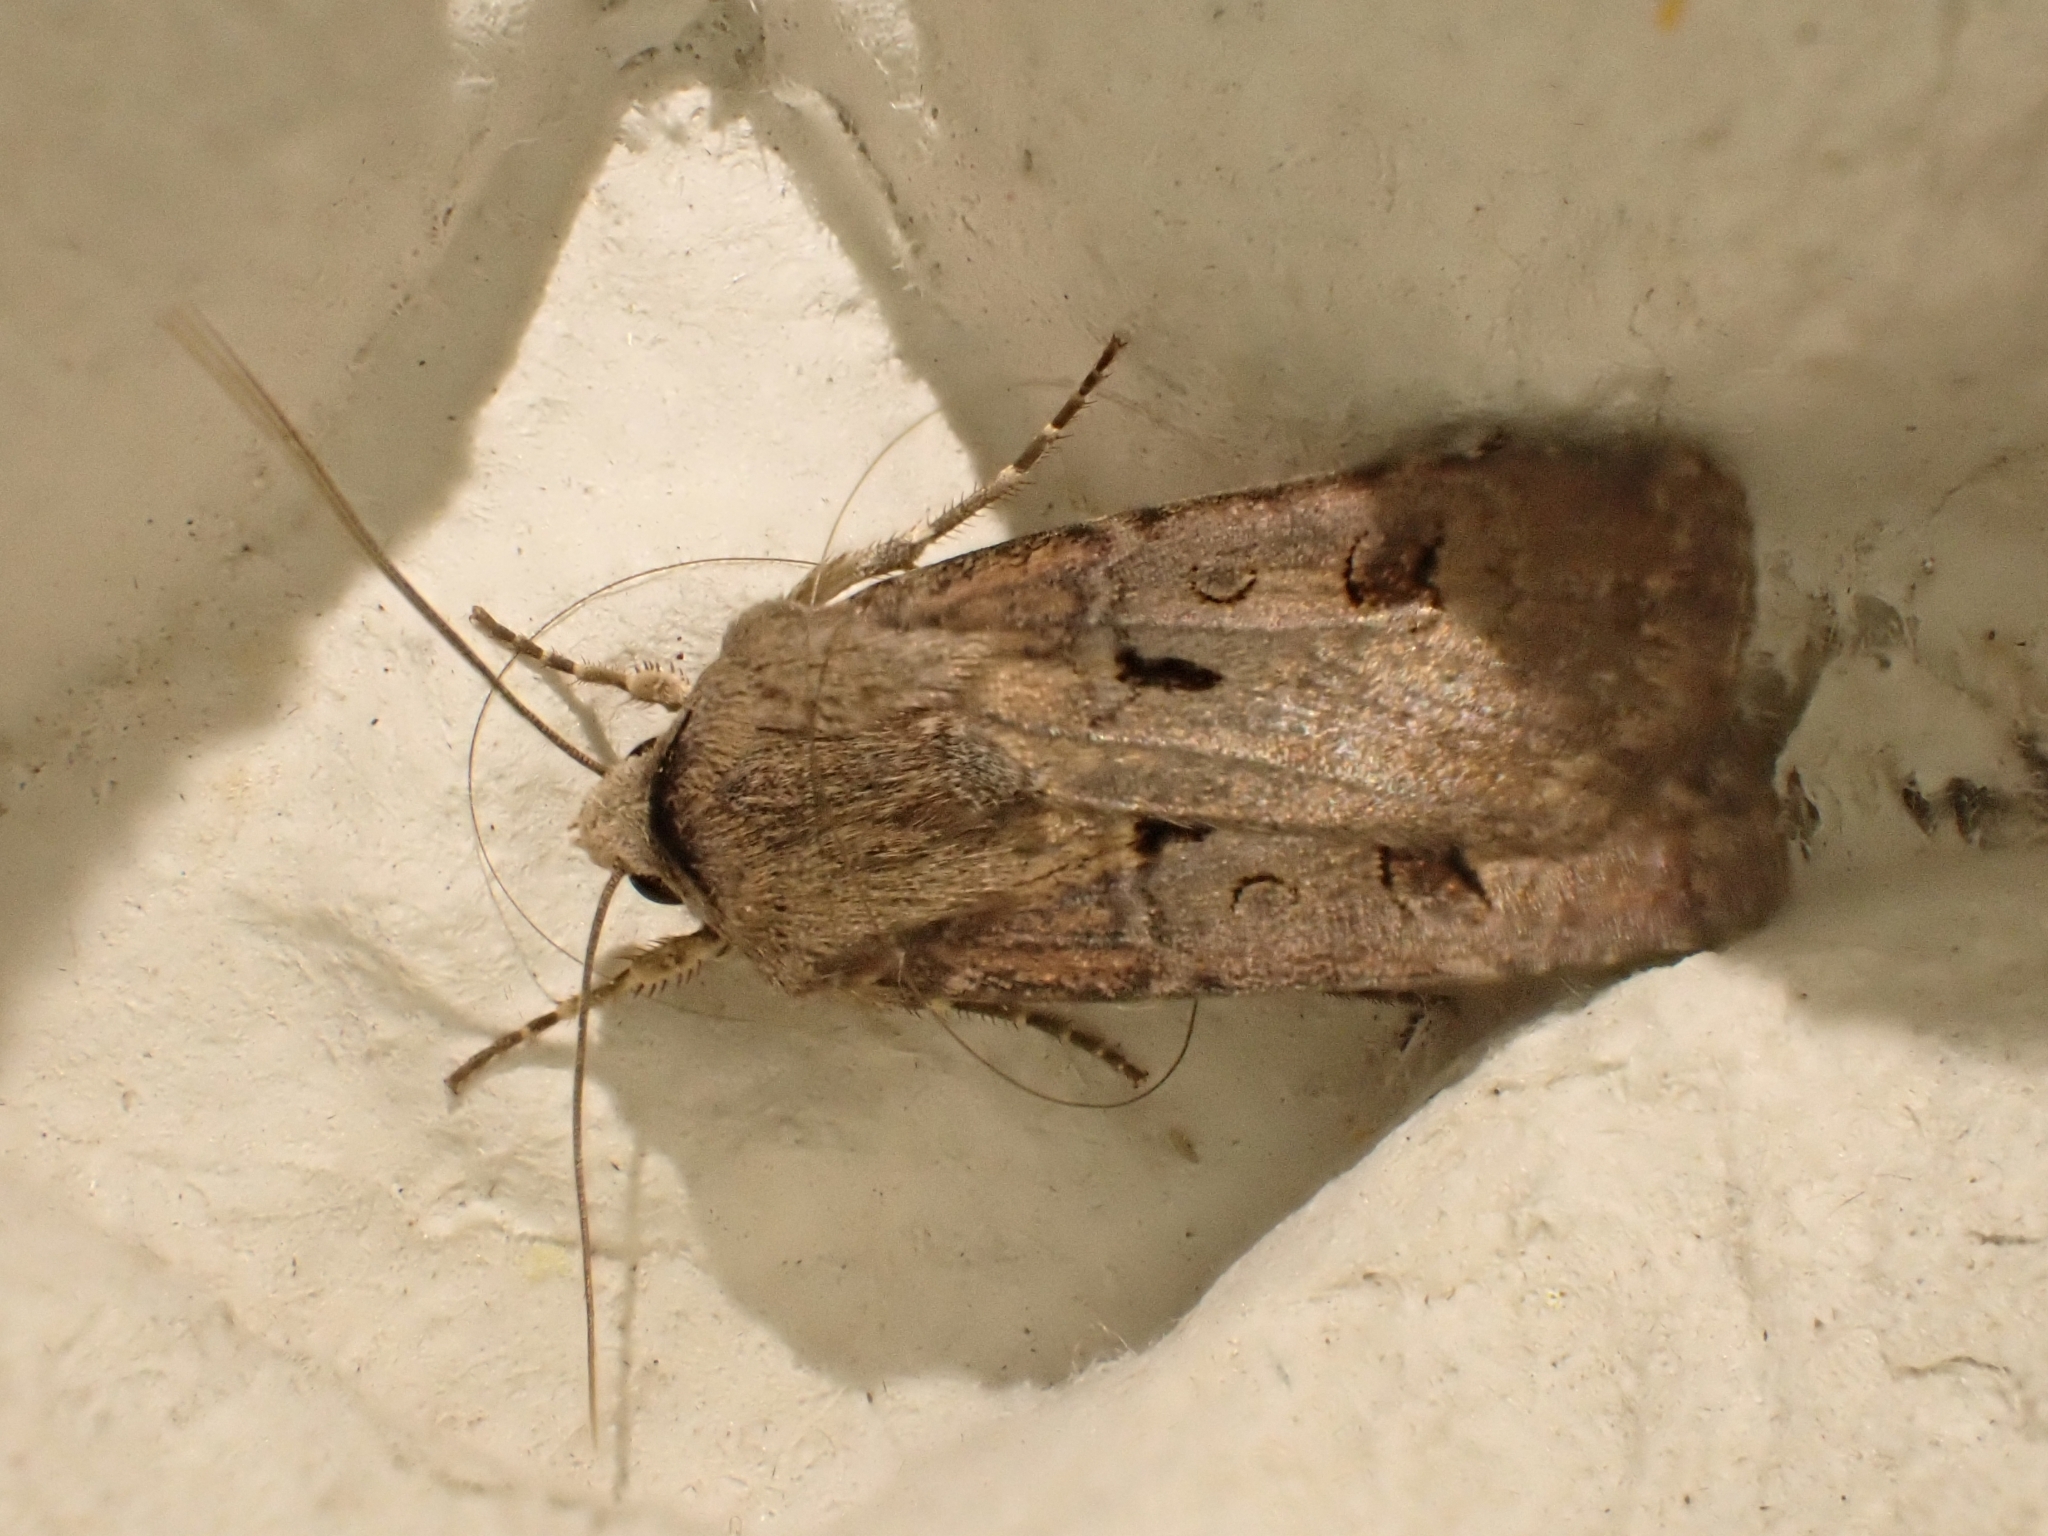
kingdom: Animalia
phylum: Arthropoda
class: Insecta
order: Lepidoptera
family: Noctuidae
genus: Agrotis
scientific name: Agrotis exclamationis
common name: Heart and dart
